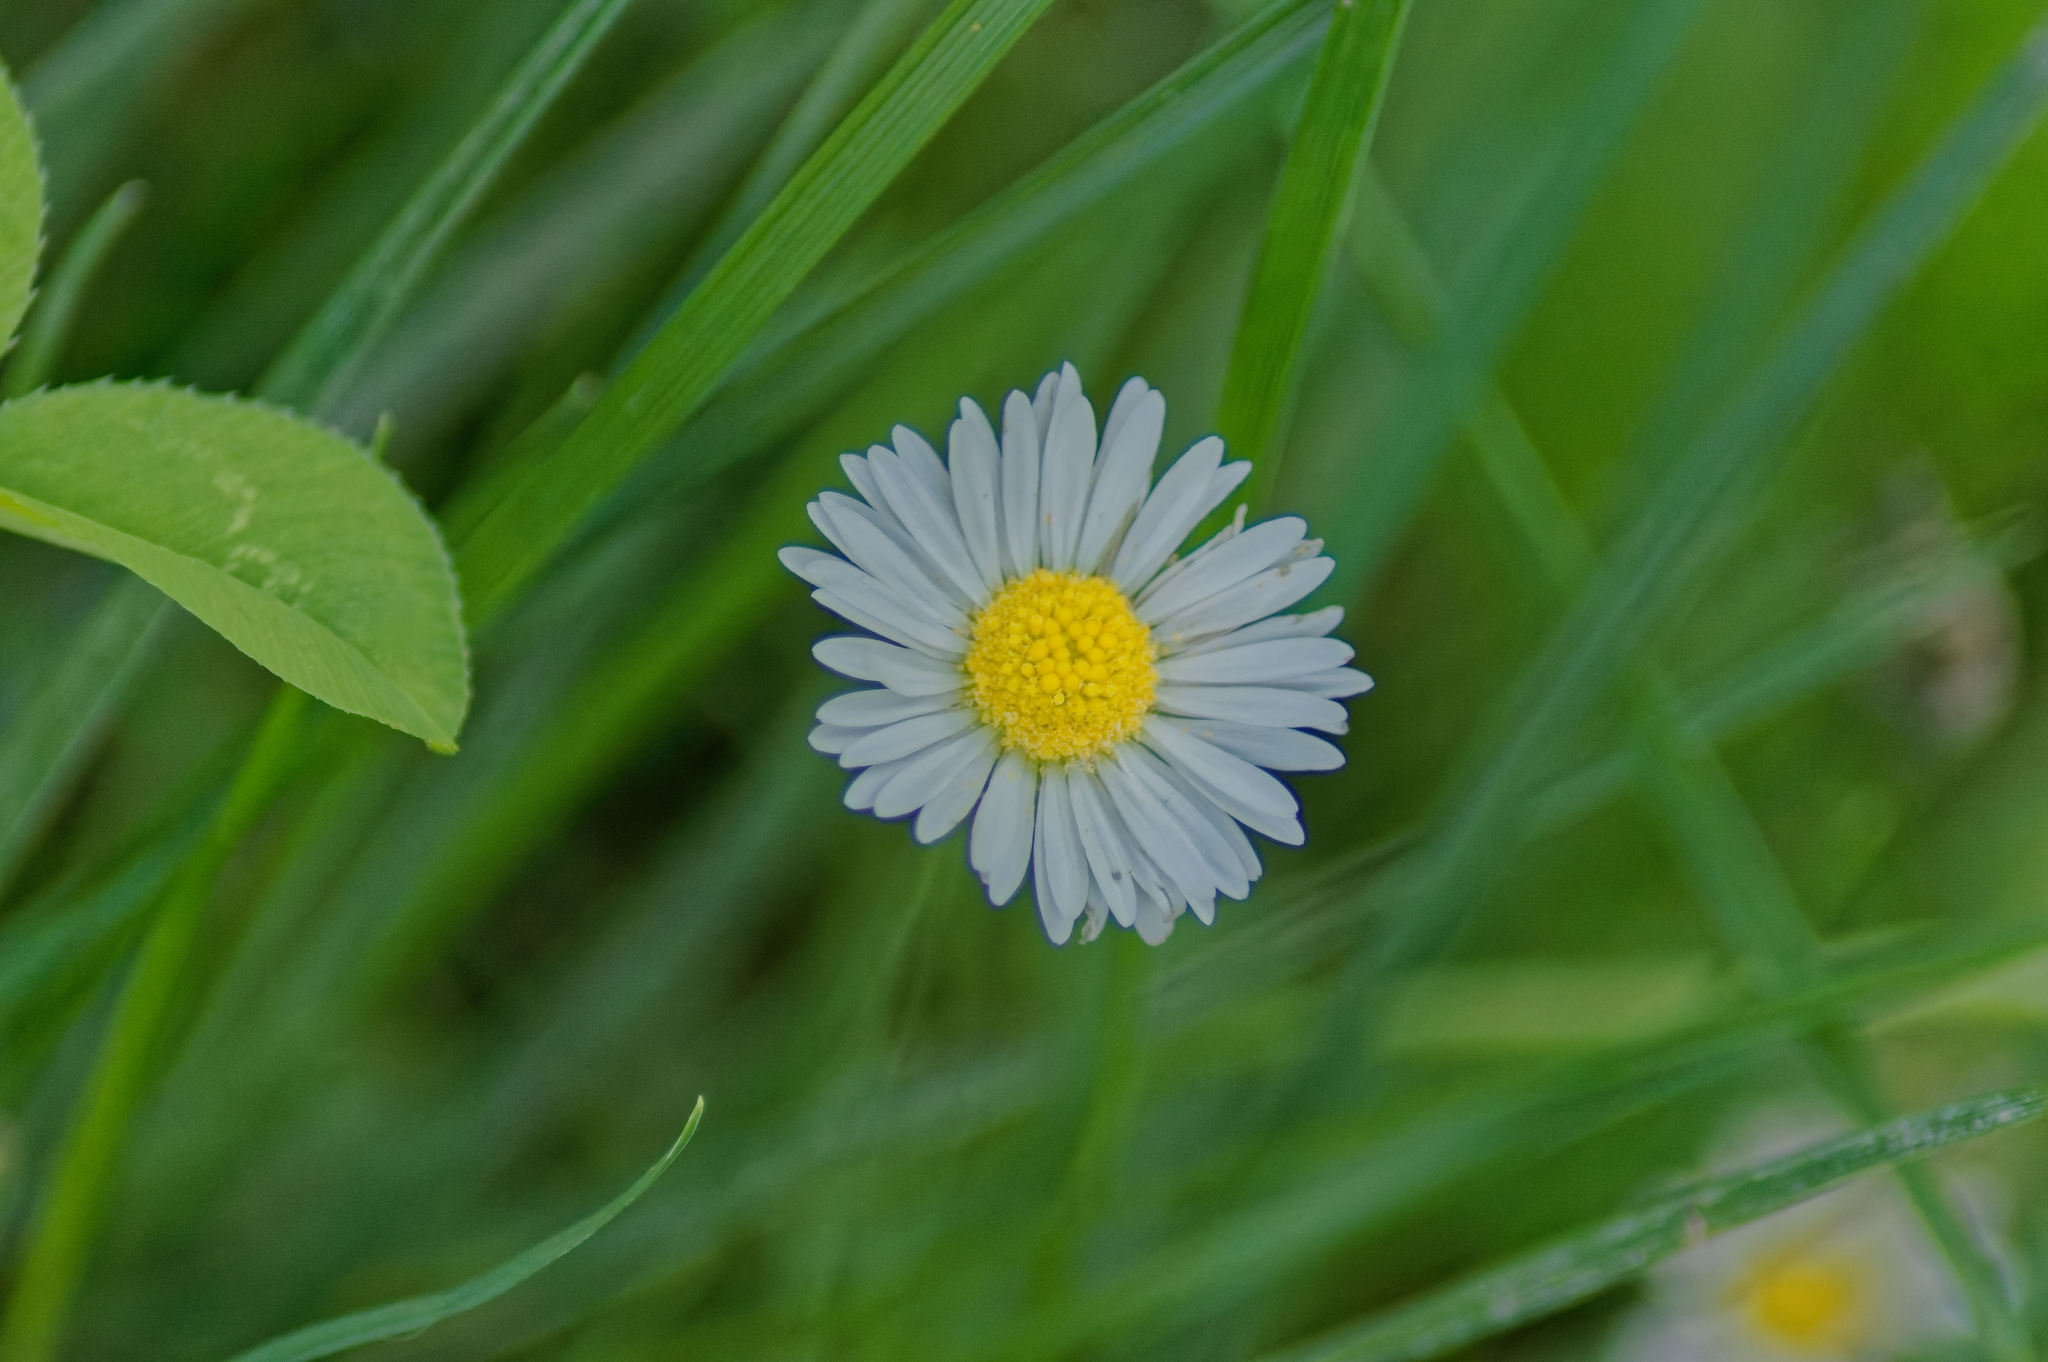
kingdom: Plantae
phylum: Tracheophyta
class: Magnoliopsida
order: Asterales
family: Asteraceae
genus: Bellis
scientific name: Bellis perennis
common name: Lawndaisy
